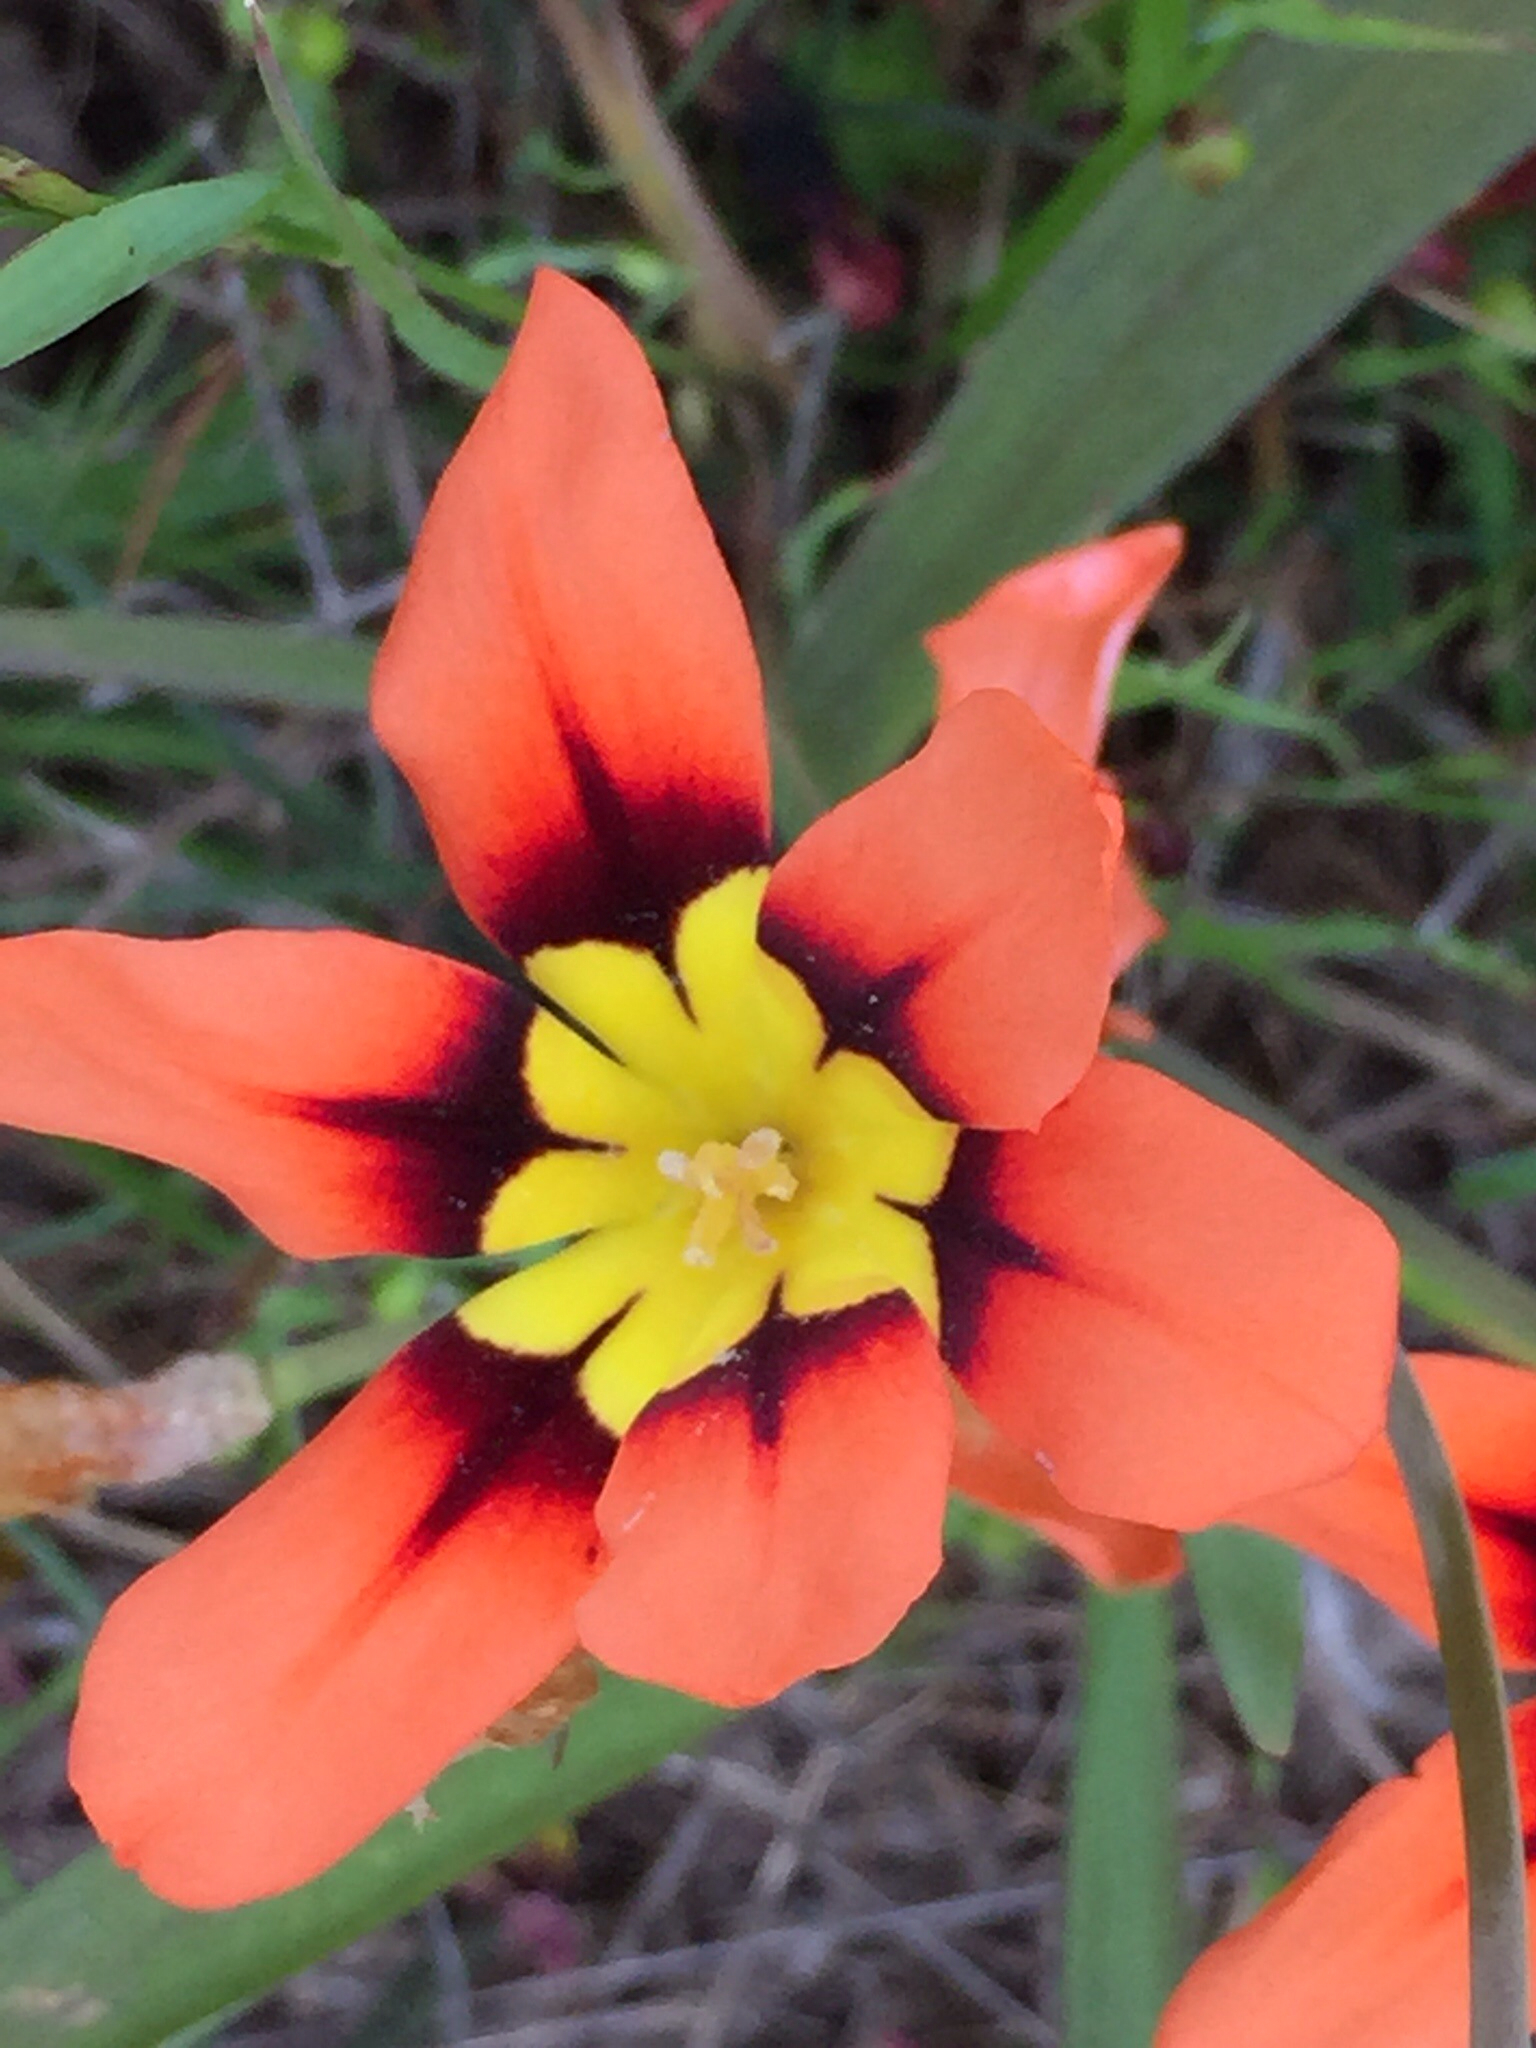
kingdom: Plantae
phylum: Tracheophyta
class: Liliopsida
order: Asparagales
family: Iridaceae
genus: Sparaxis
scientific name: Sparaxis tricolor
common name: Wandflower
